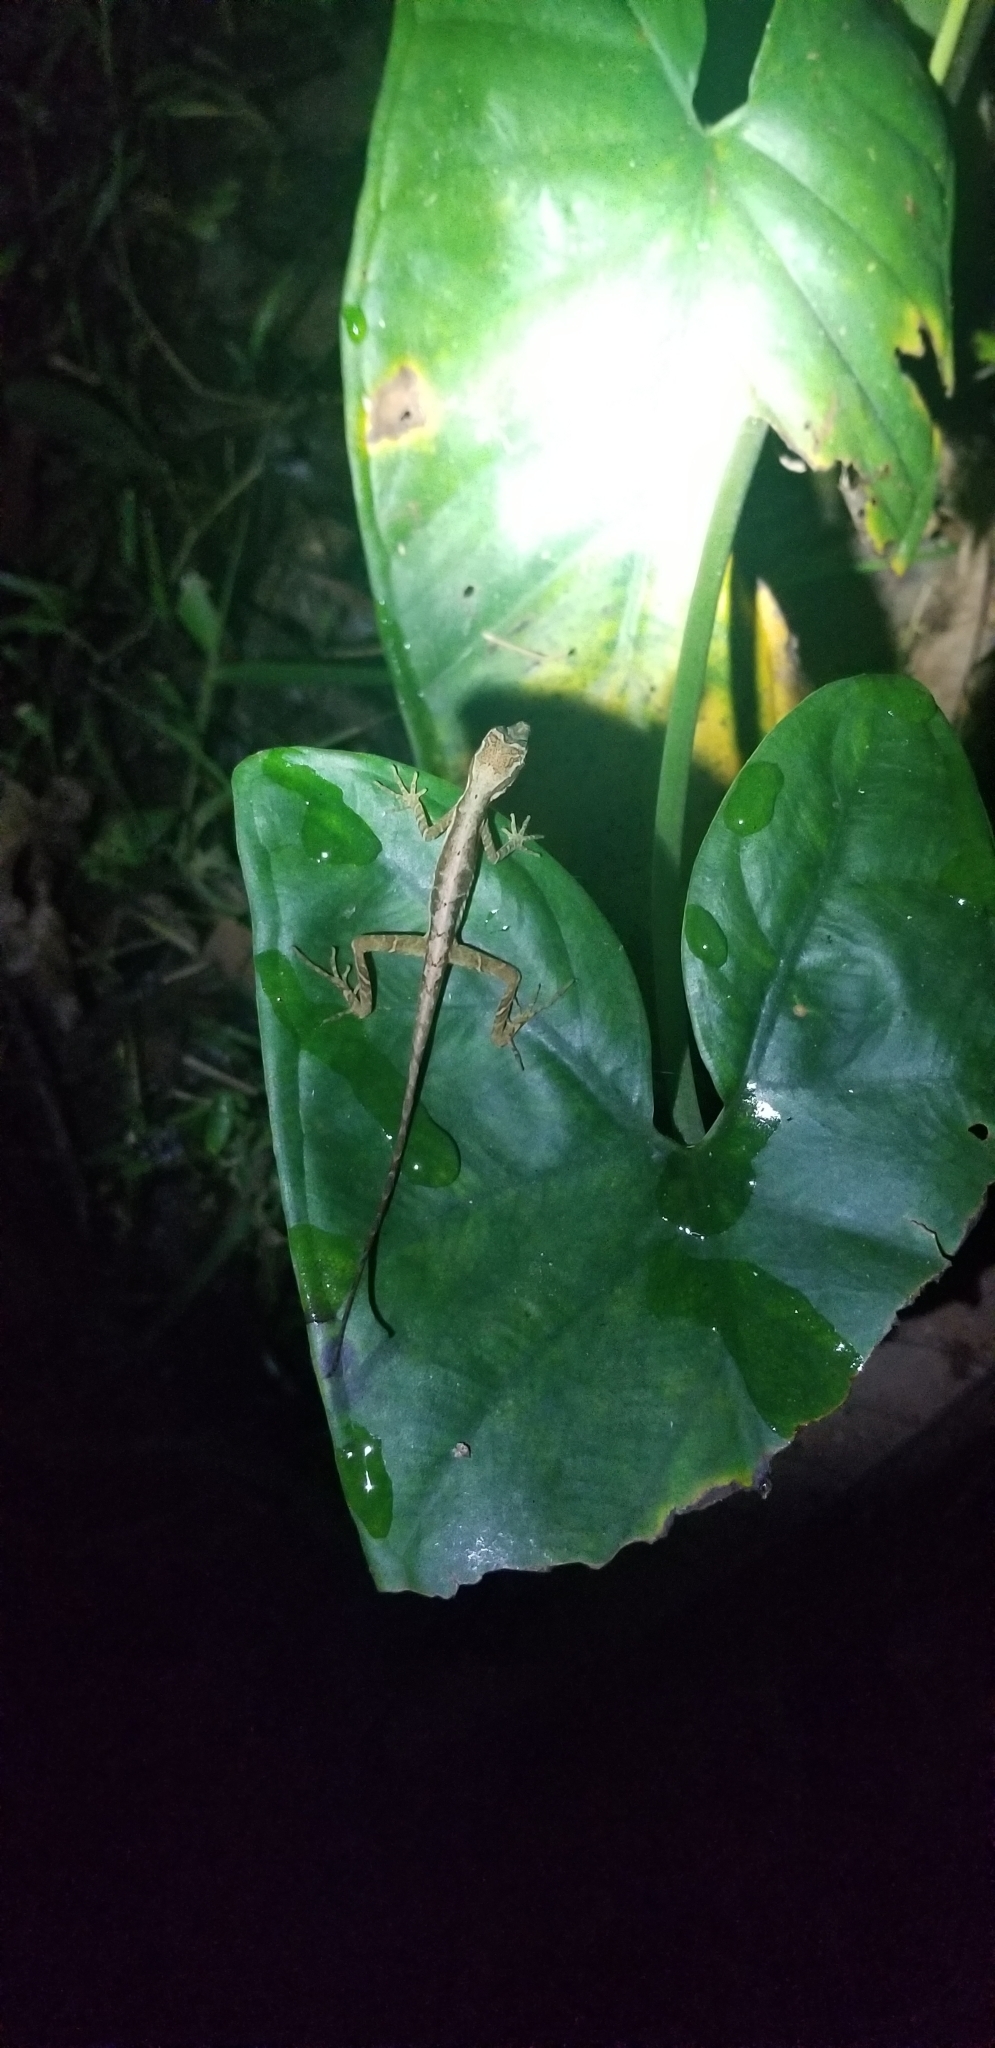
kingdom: Animalia
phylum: Chordata
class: Squamata
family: Dactyloidae
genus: Anolis
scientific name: Anolis trachyderma
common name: Common forest anole
